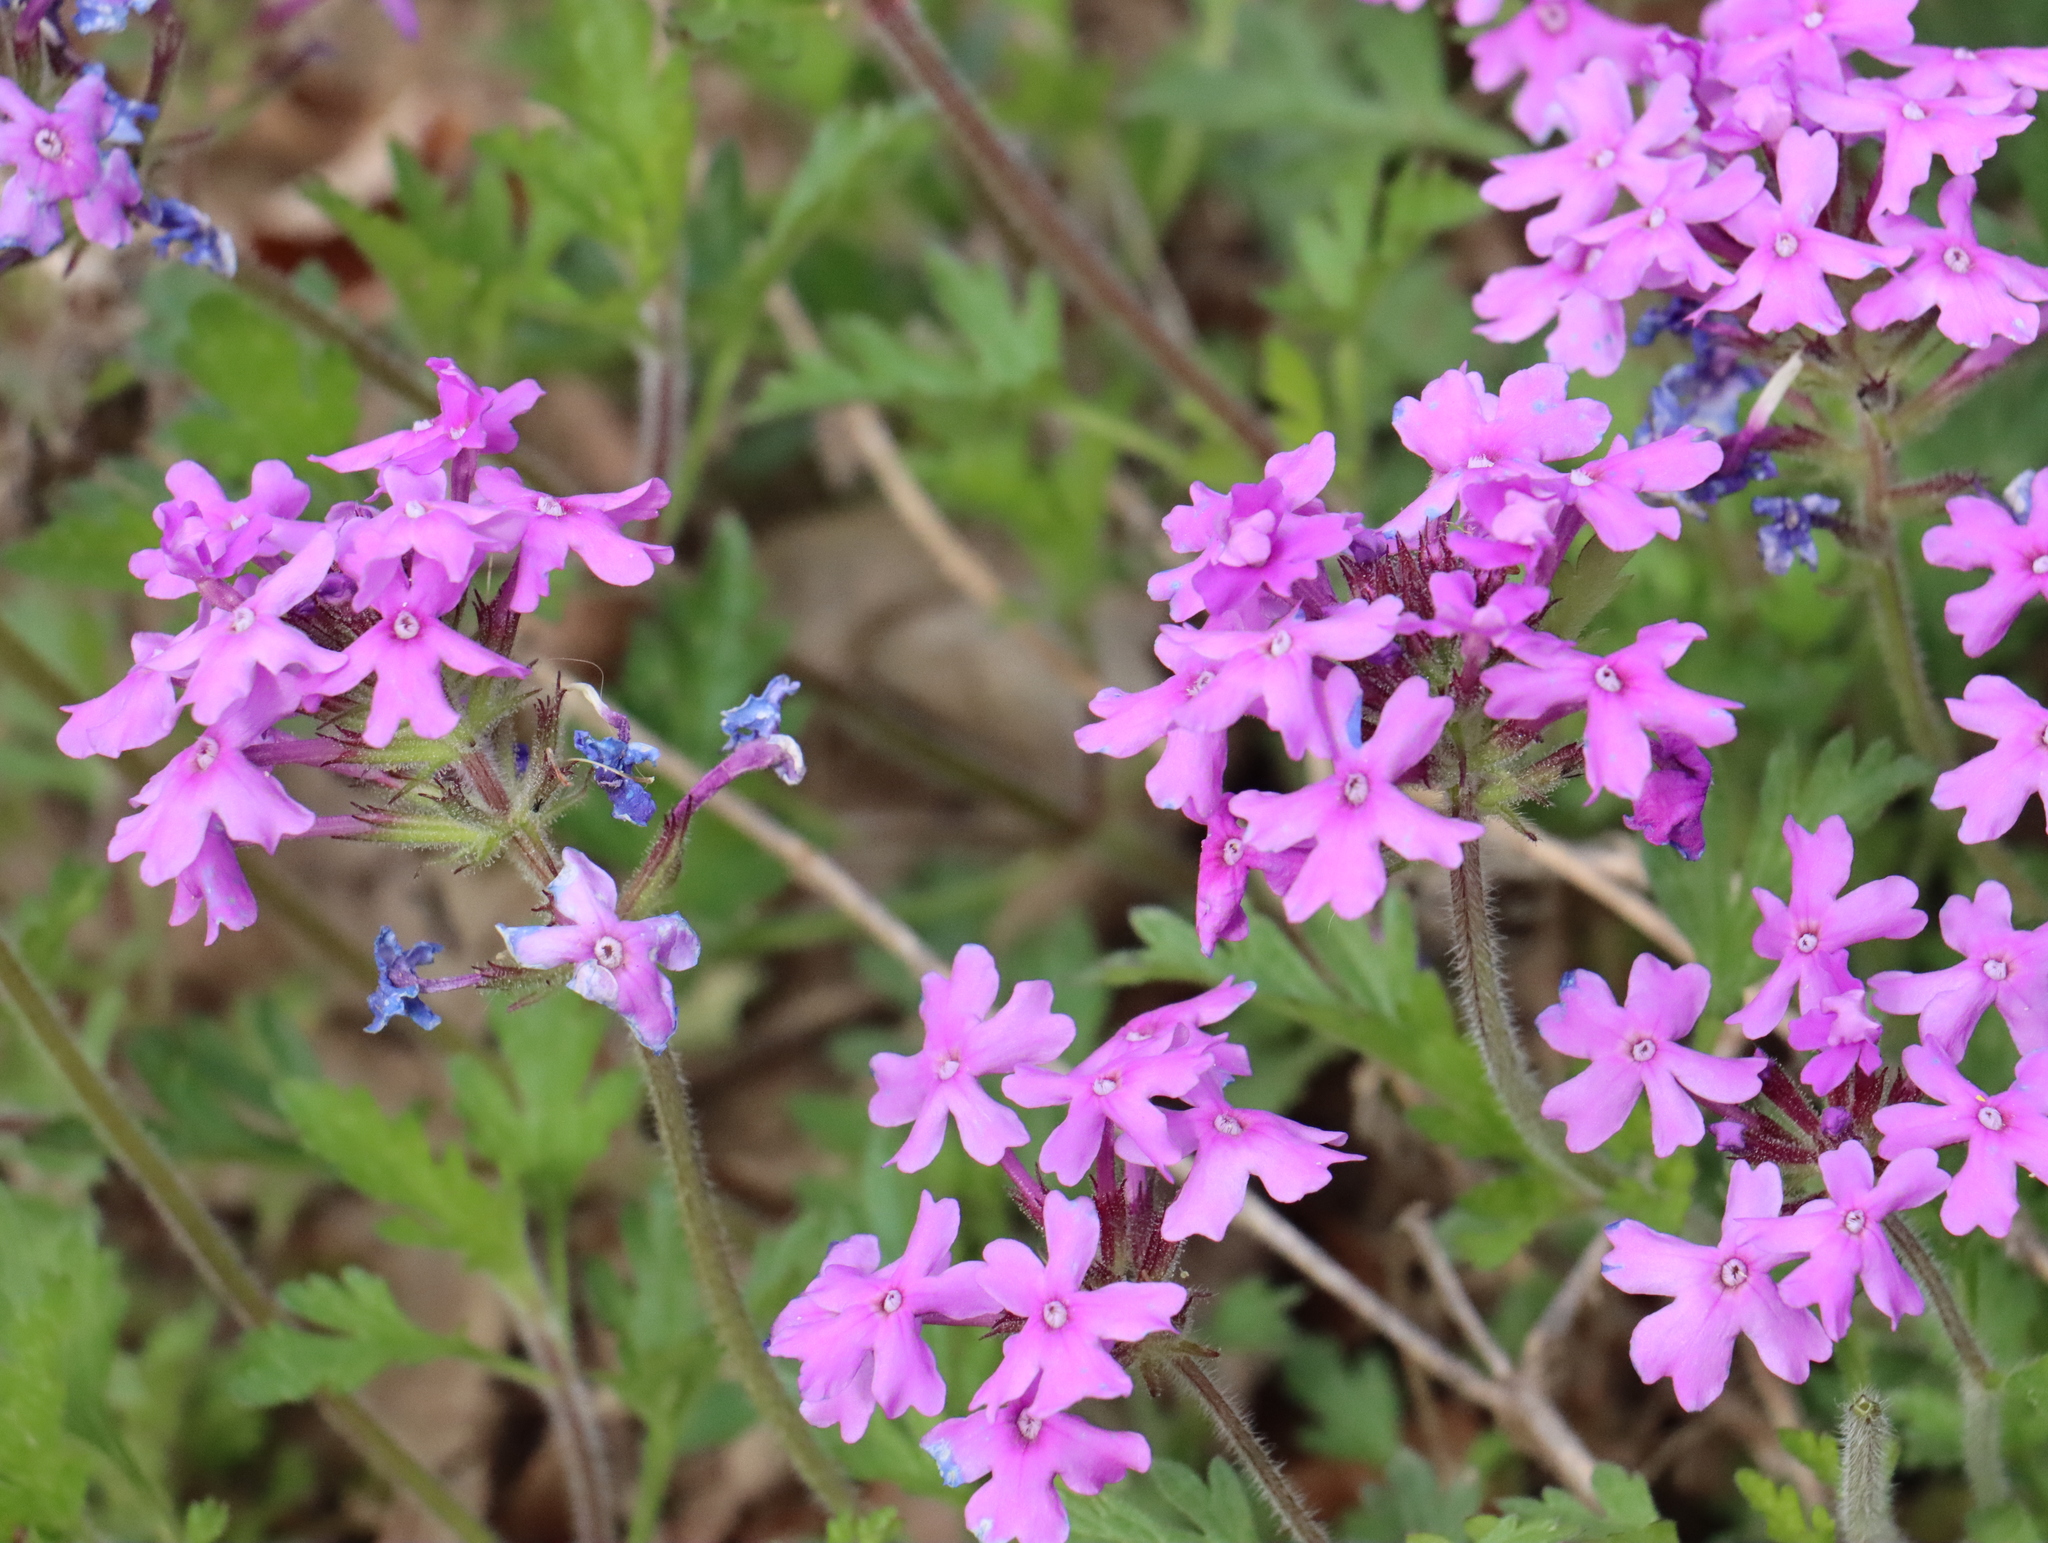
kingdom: Plantae
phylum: Tracheophyta
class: Magnoliopsida
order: Lamiales
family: Verbenaceae
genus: Verbena
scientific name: Verbena canadensis
